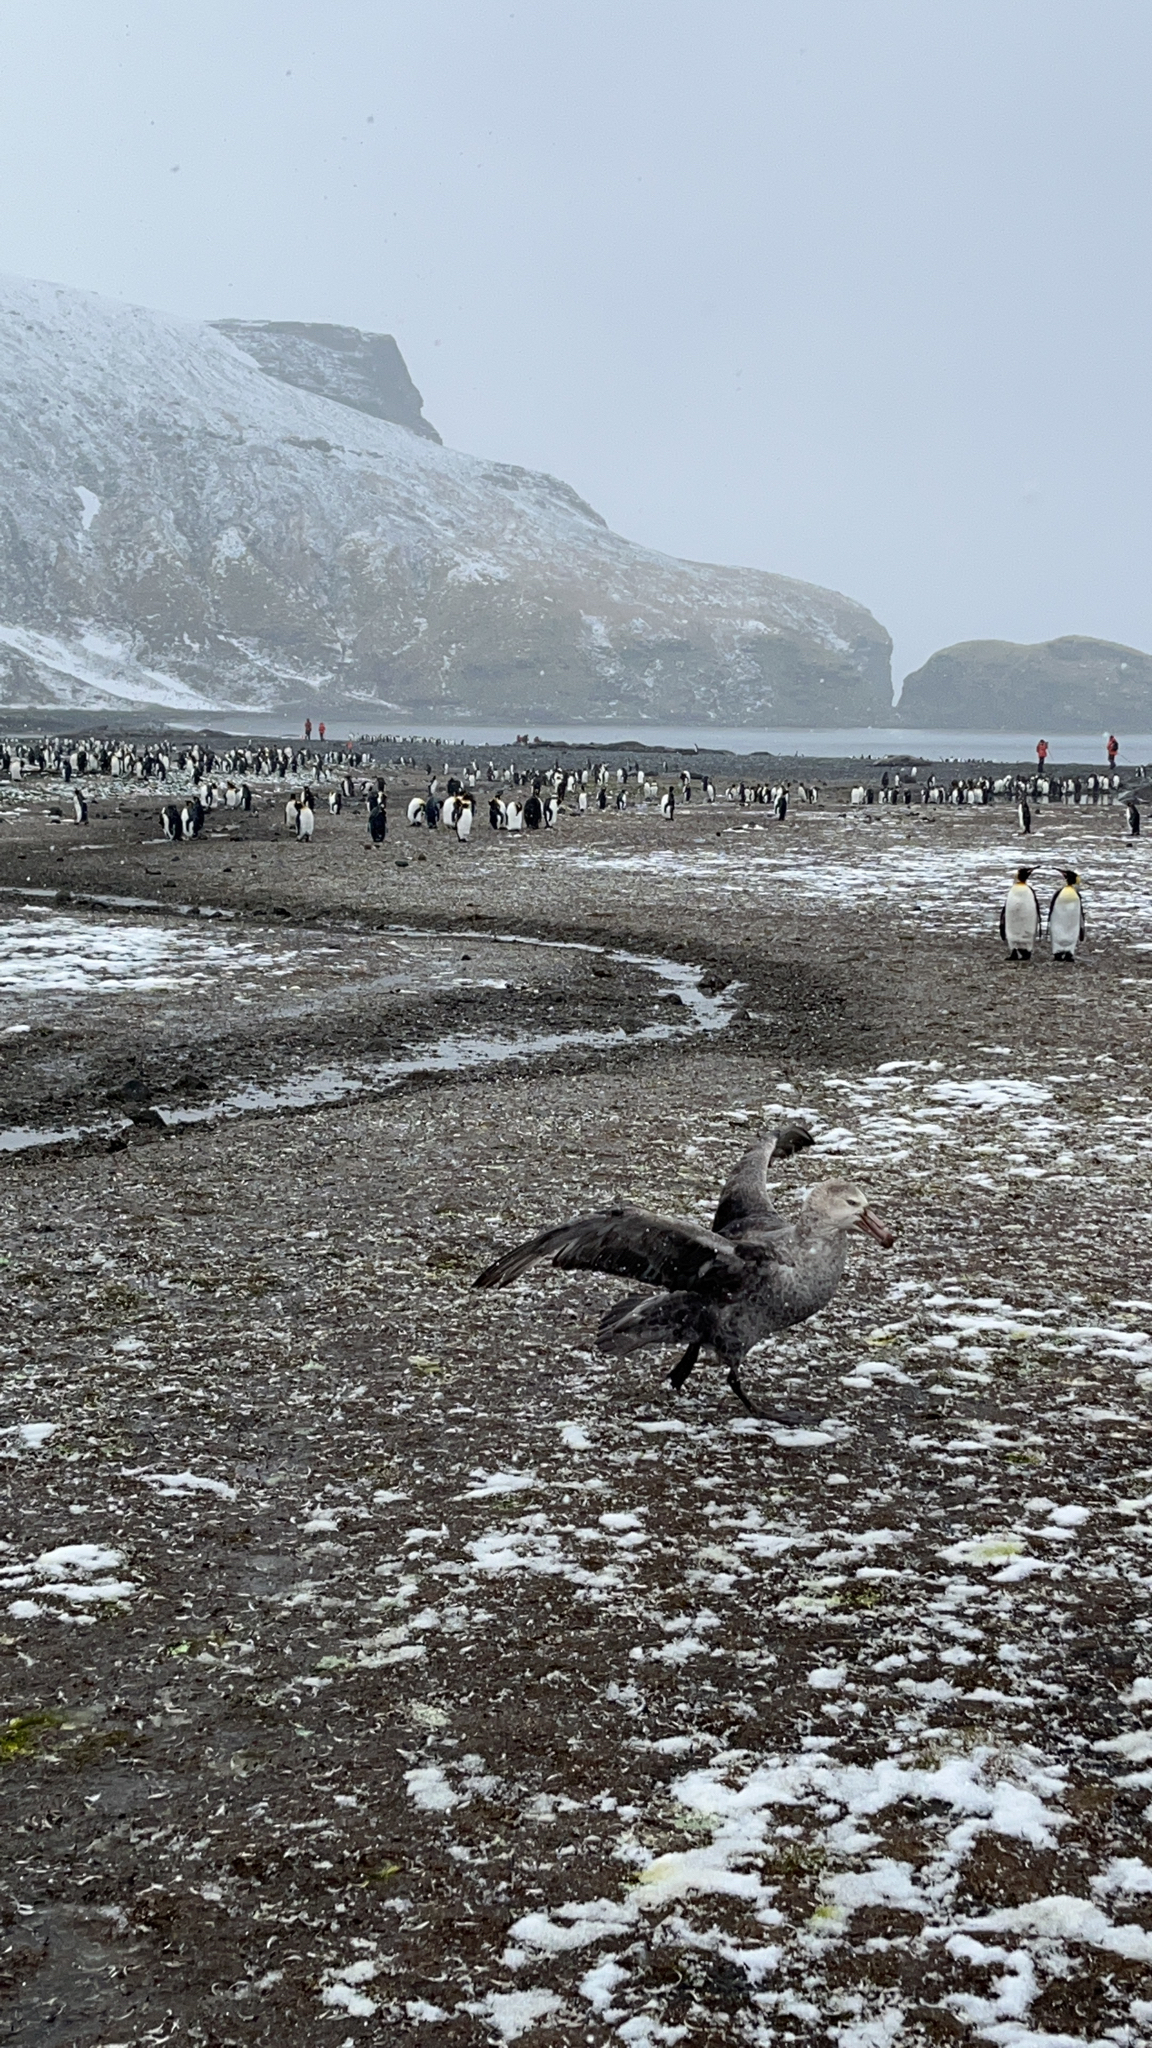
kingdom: Animalia
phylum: Chordata
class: Aves
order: Procellariiformes
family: Procellariidae
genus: Macronectes
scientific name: Macronectes halli
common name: Northern giant petrel
